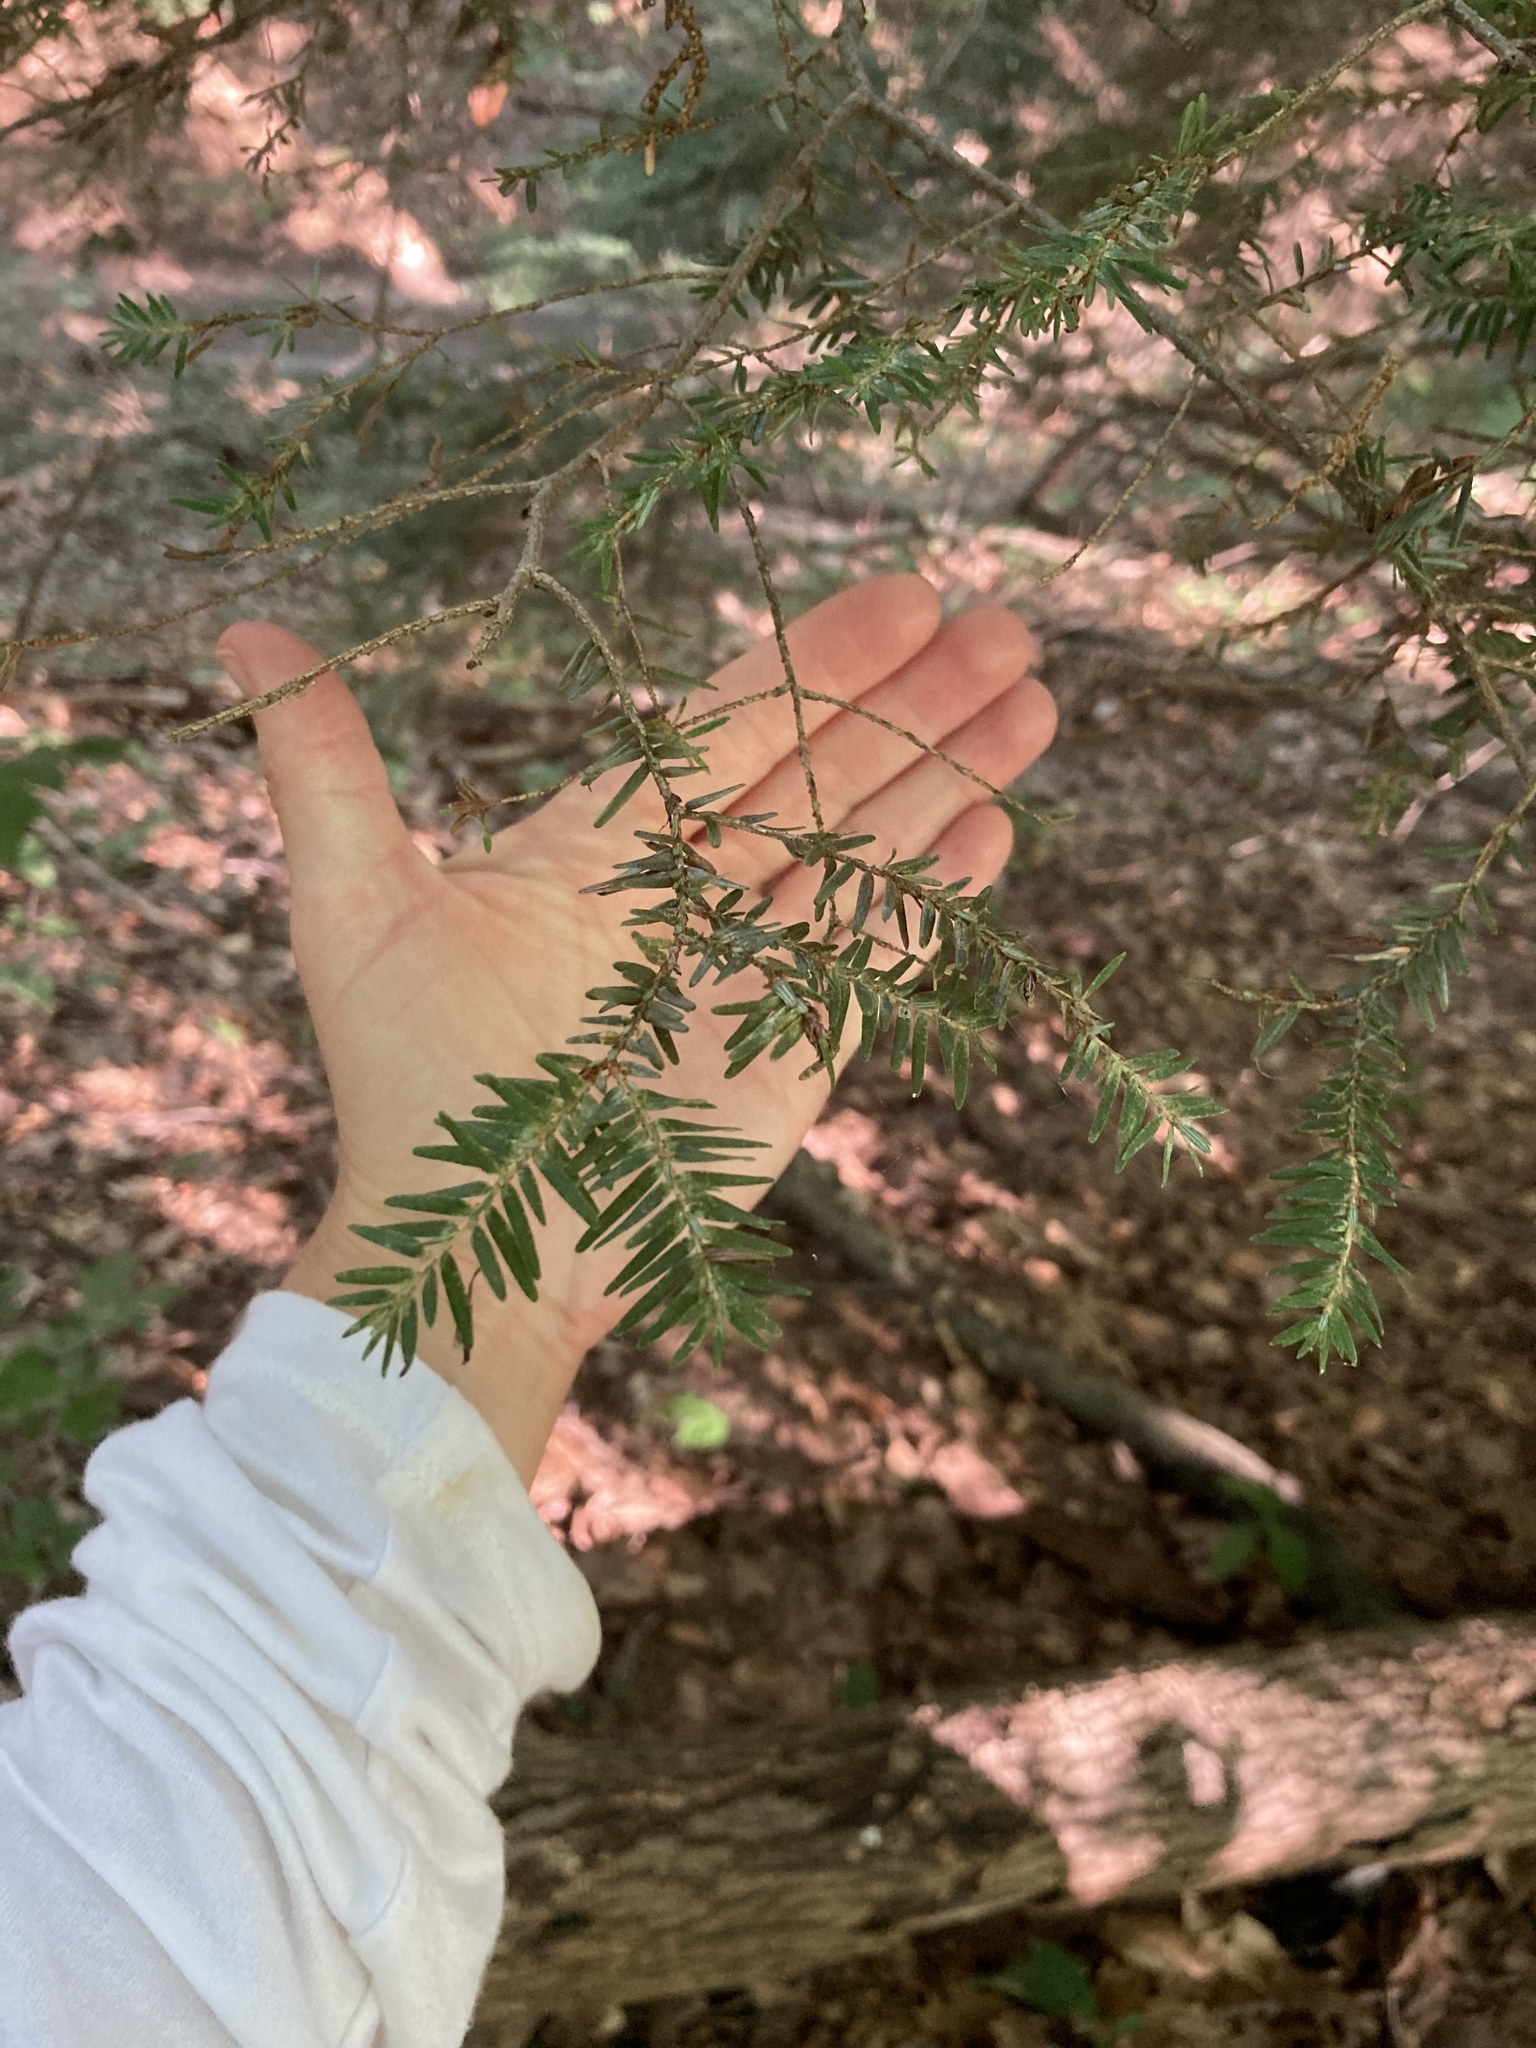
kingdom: Plantae
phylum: Tracheophyta
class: Pinopsida
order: Pinales
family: Pinaceae
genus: Tsuga
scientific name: Tsuga canadensis
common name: Eastern hemlock
